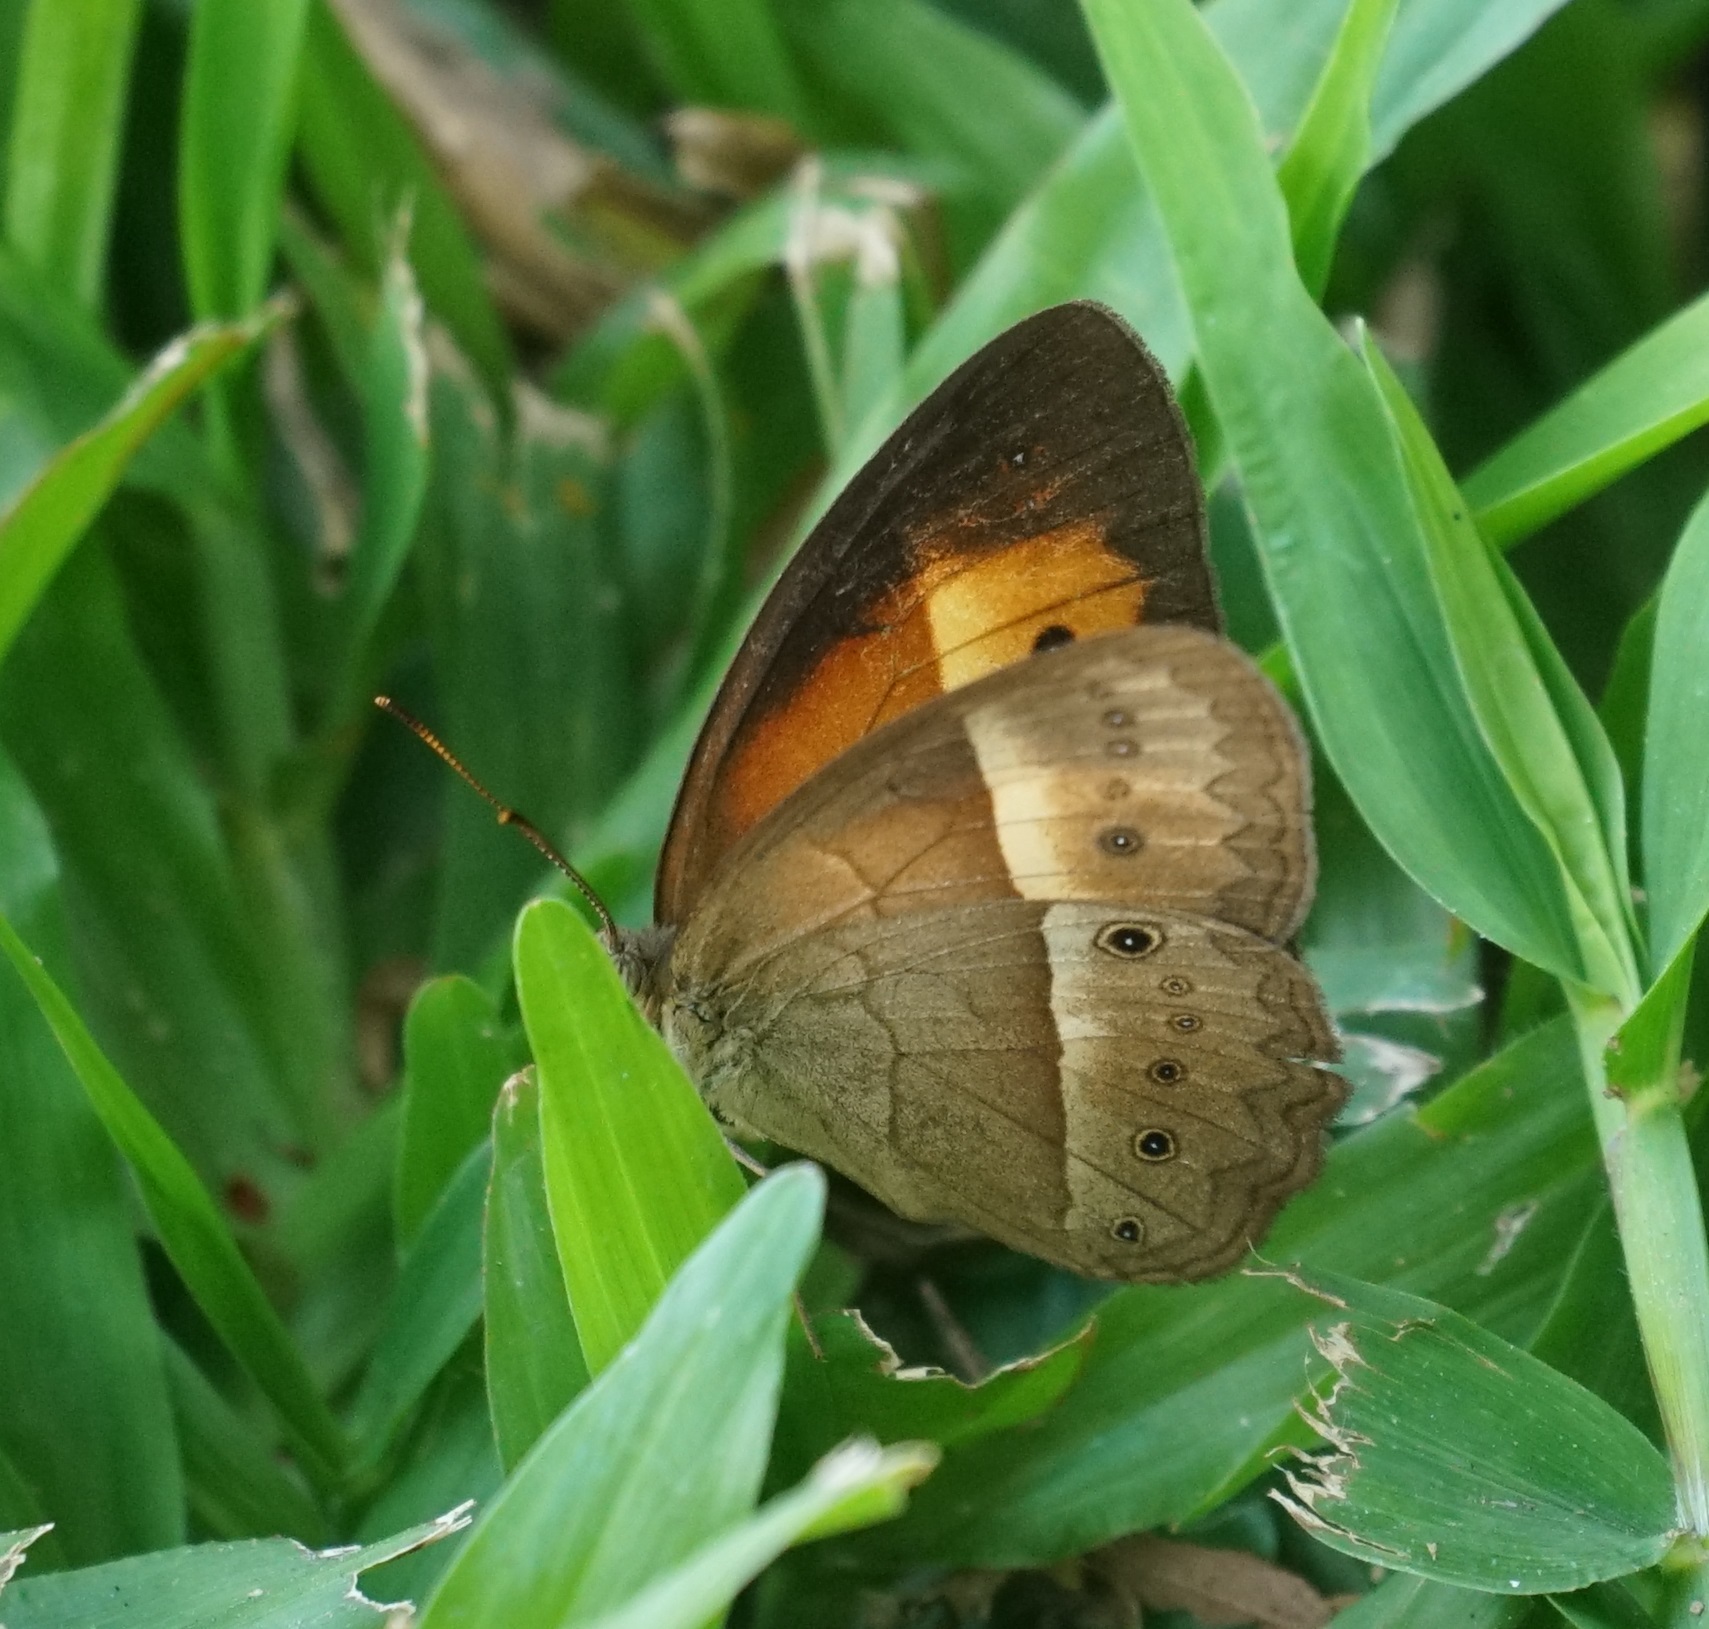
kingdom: Animalia
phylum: Arthropoda
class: Insecta
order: Lepidoptera
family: Nymphalidae
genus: Mycalesis
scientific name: Mycalesis terminus
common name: Orange bushbrown
